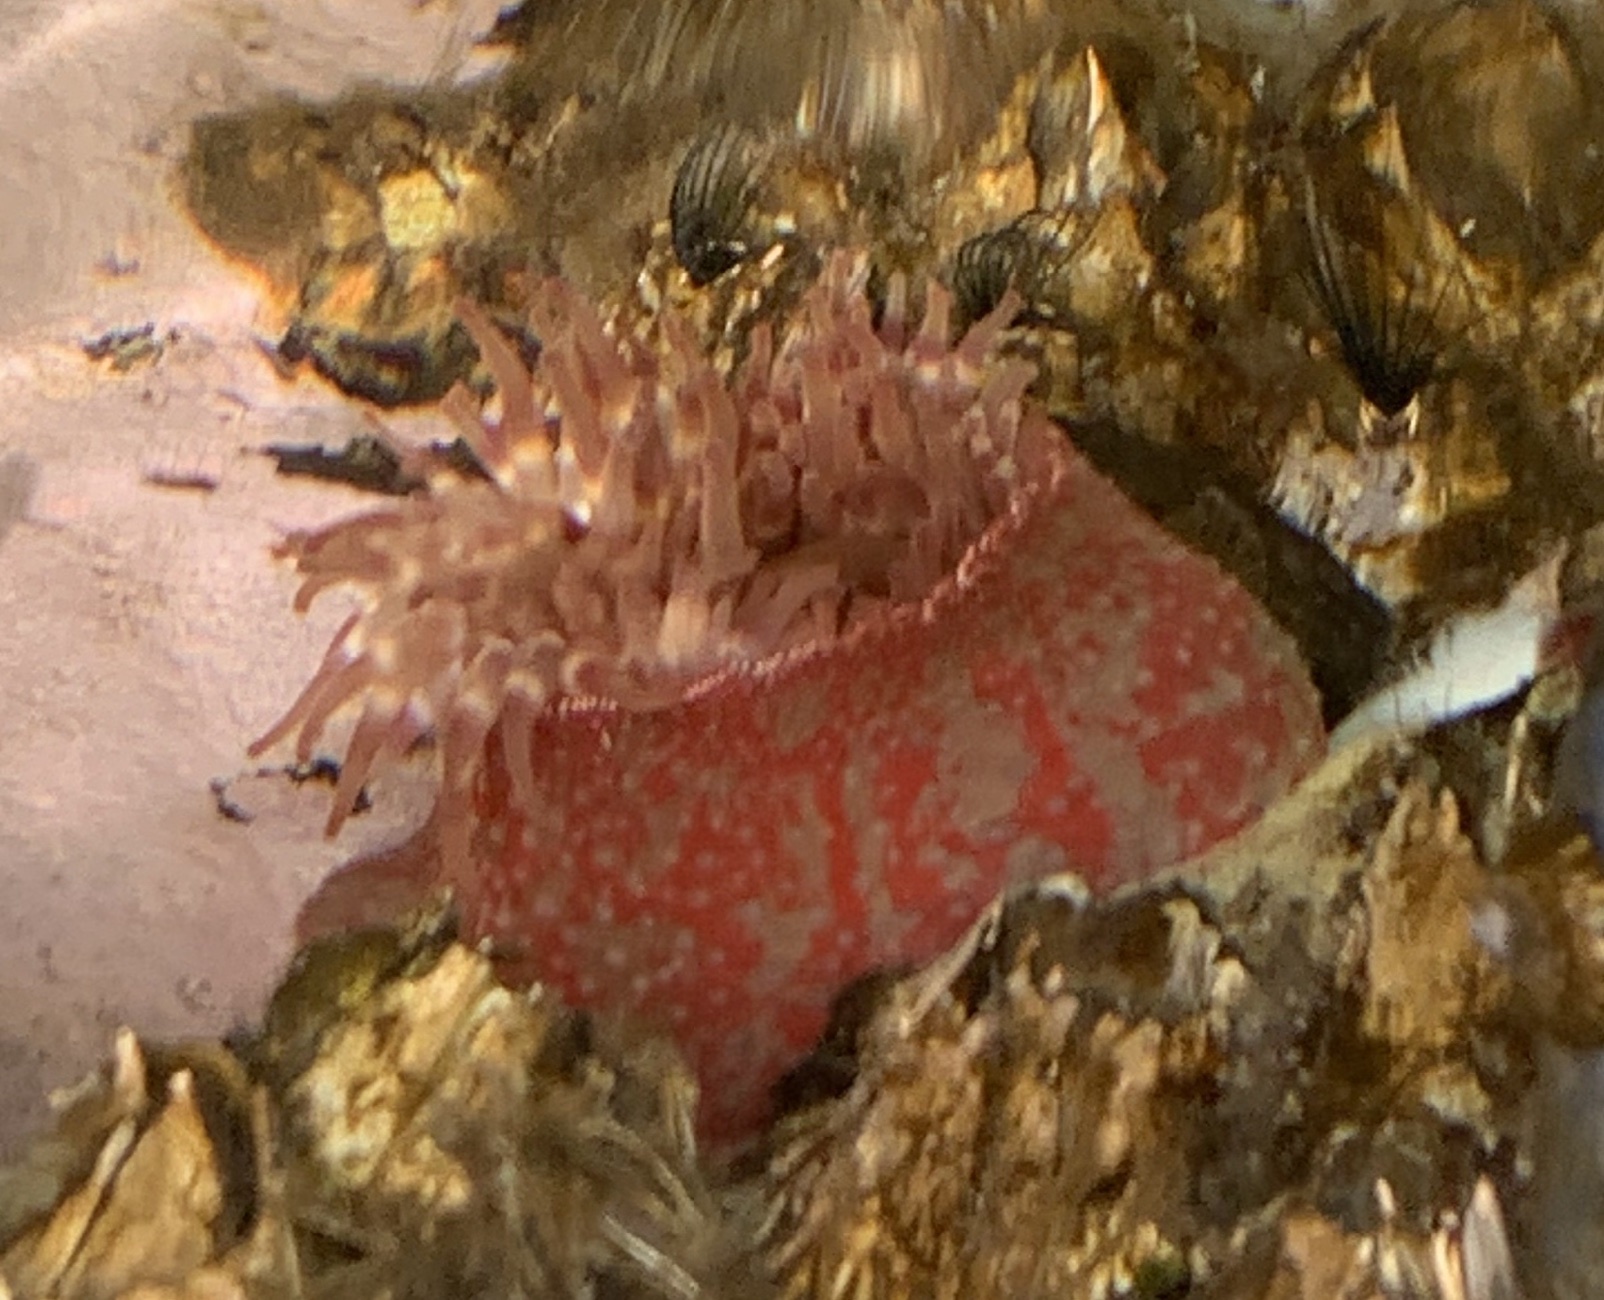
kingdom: Animalia
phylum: Cnidaria
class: Anthozoa
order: Actiniaria
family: Actiniidae
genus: Urticina
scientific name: Urticina grebelnyi
